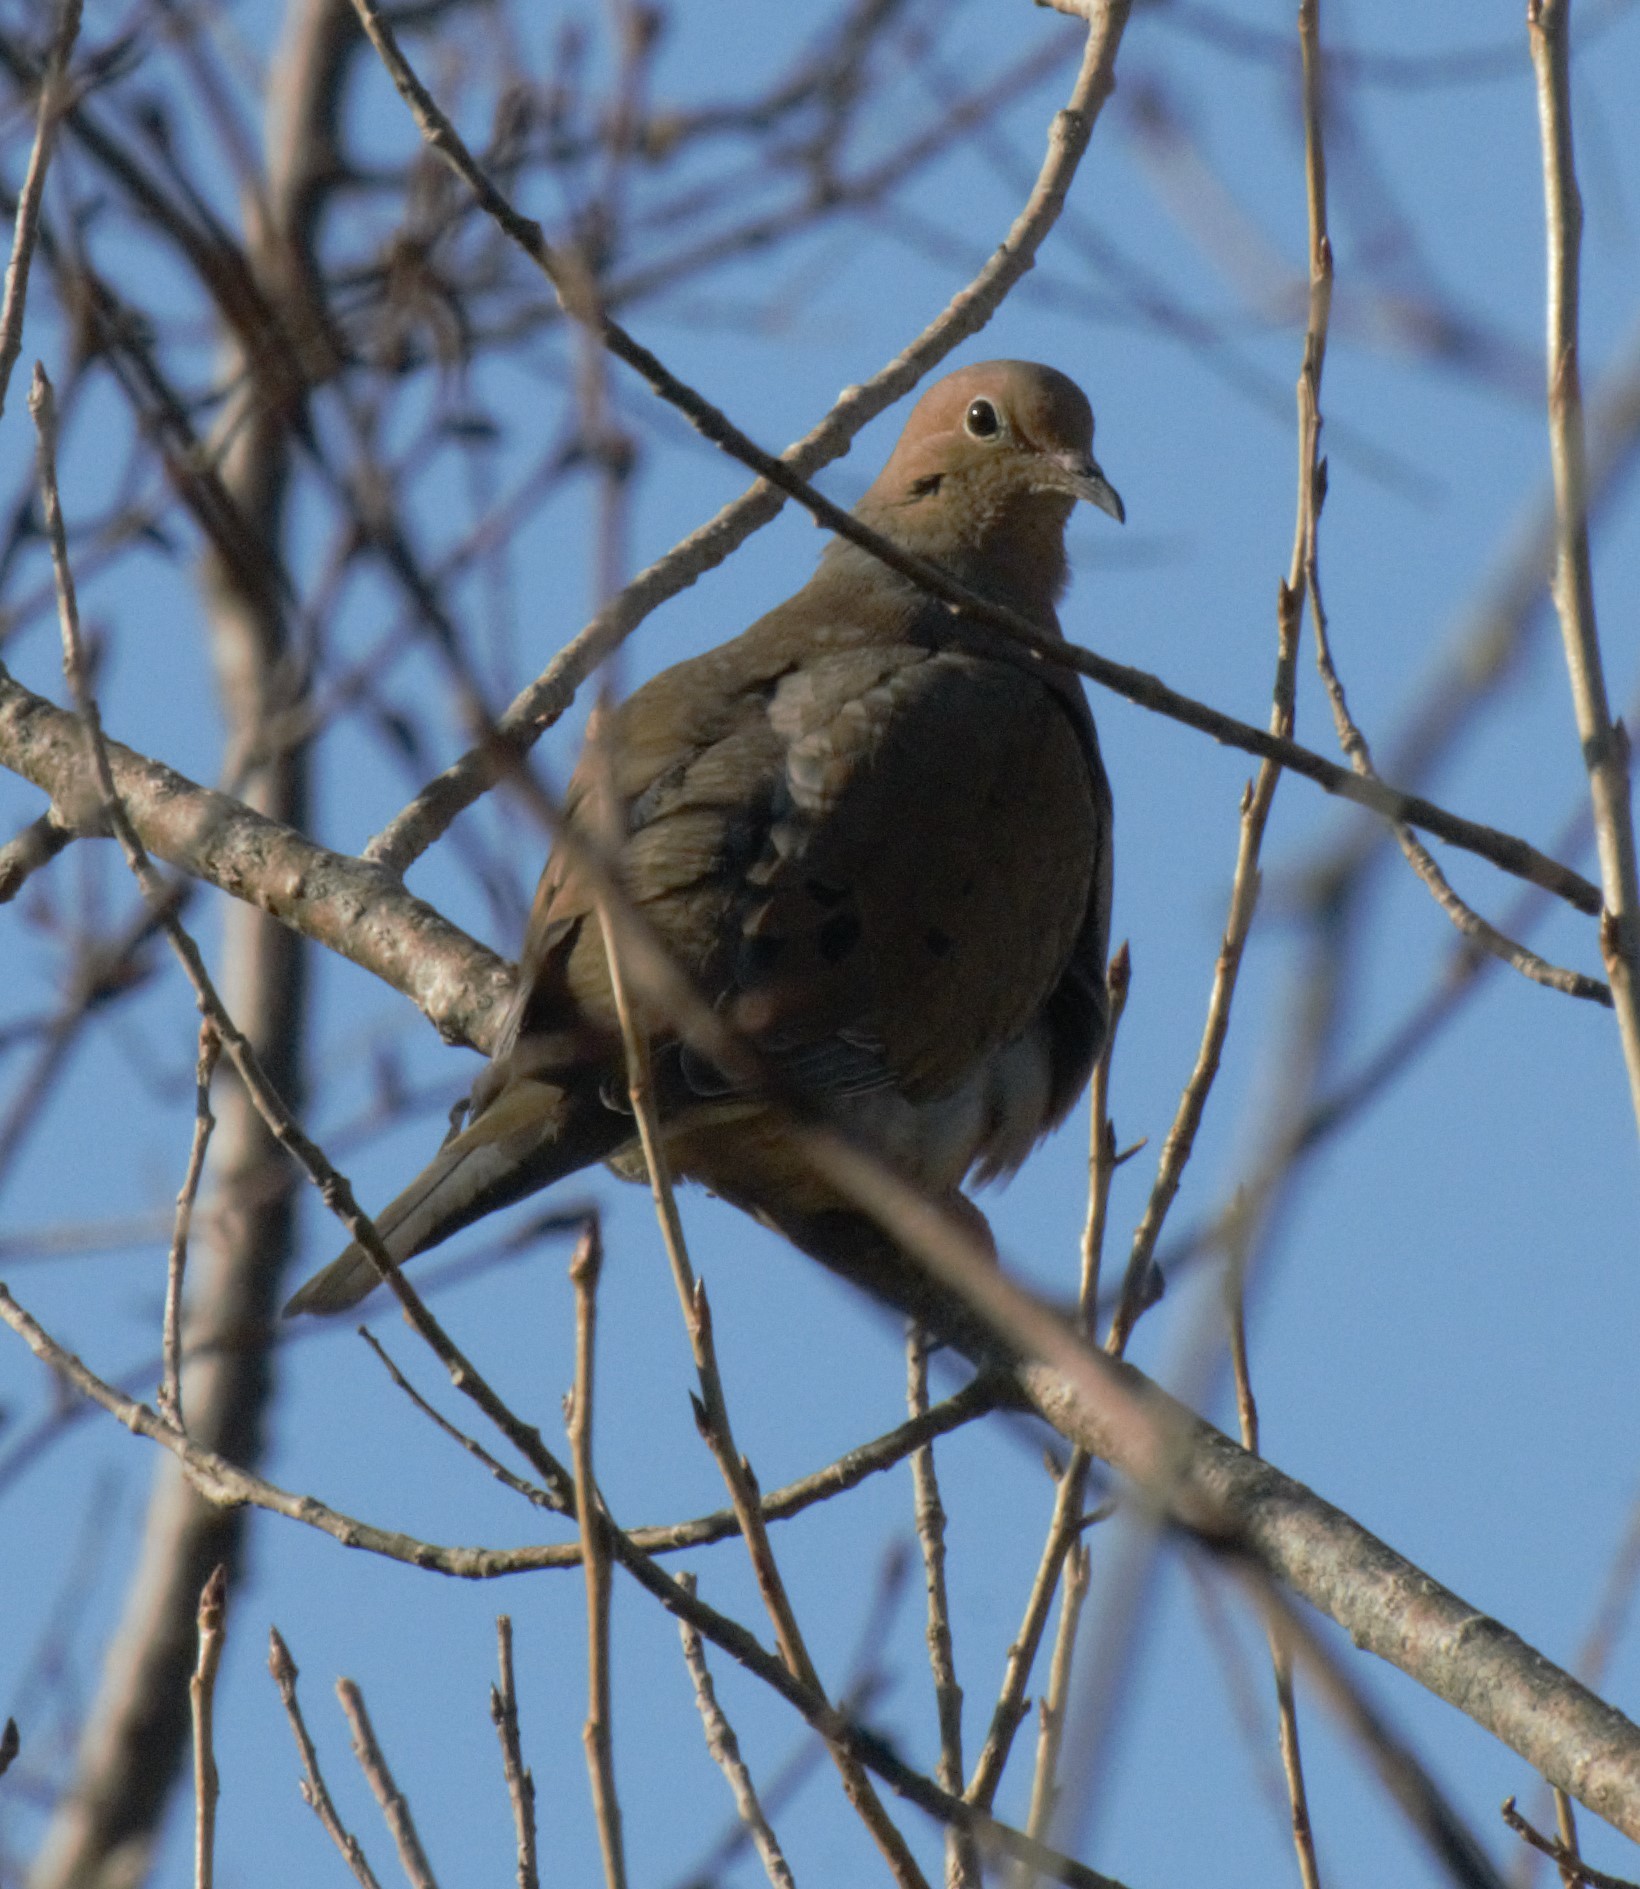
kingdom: Animalia
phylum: Chordata
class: Aves
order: Columbiformes
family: Columbidae
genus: Zenaida
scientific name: Zenaida macroura
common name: Mourning dove
